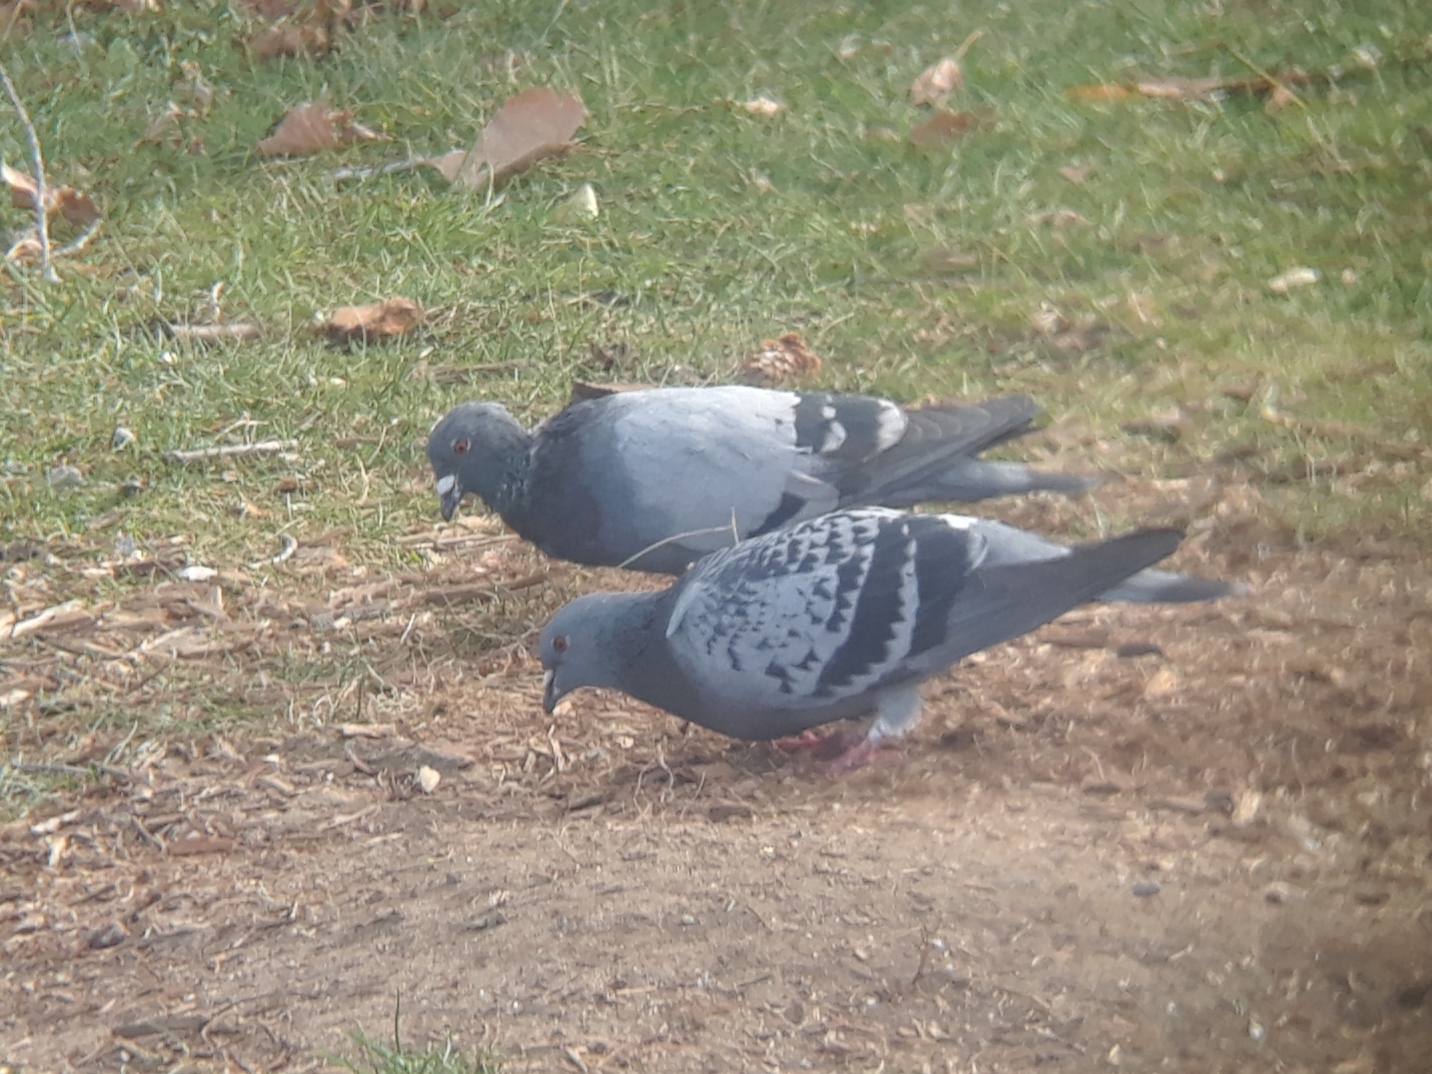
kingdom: Animalia
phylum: Chordata
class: Aves
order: Columbiformes
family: Columbidae
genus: Columba
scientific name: Columba livia
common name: Rock pigeon
